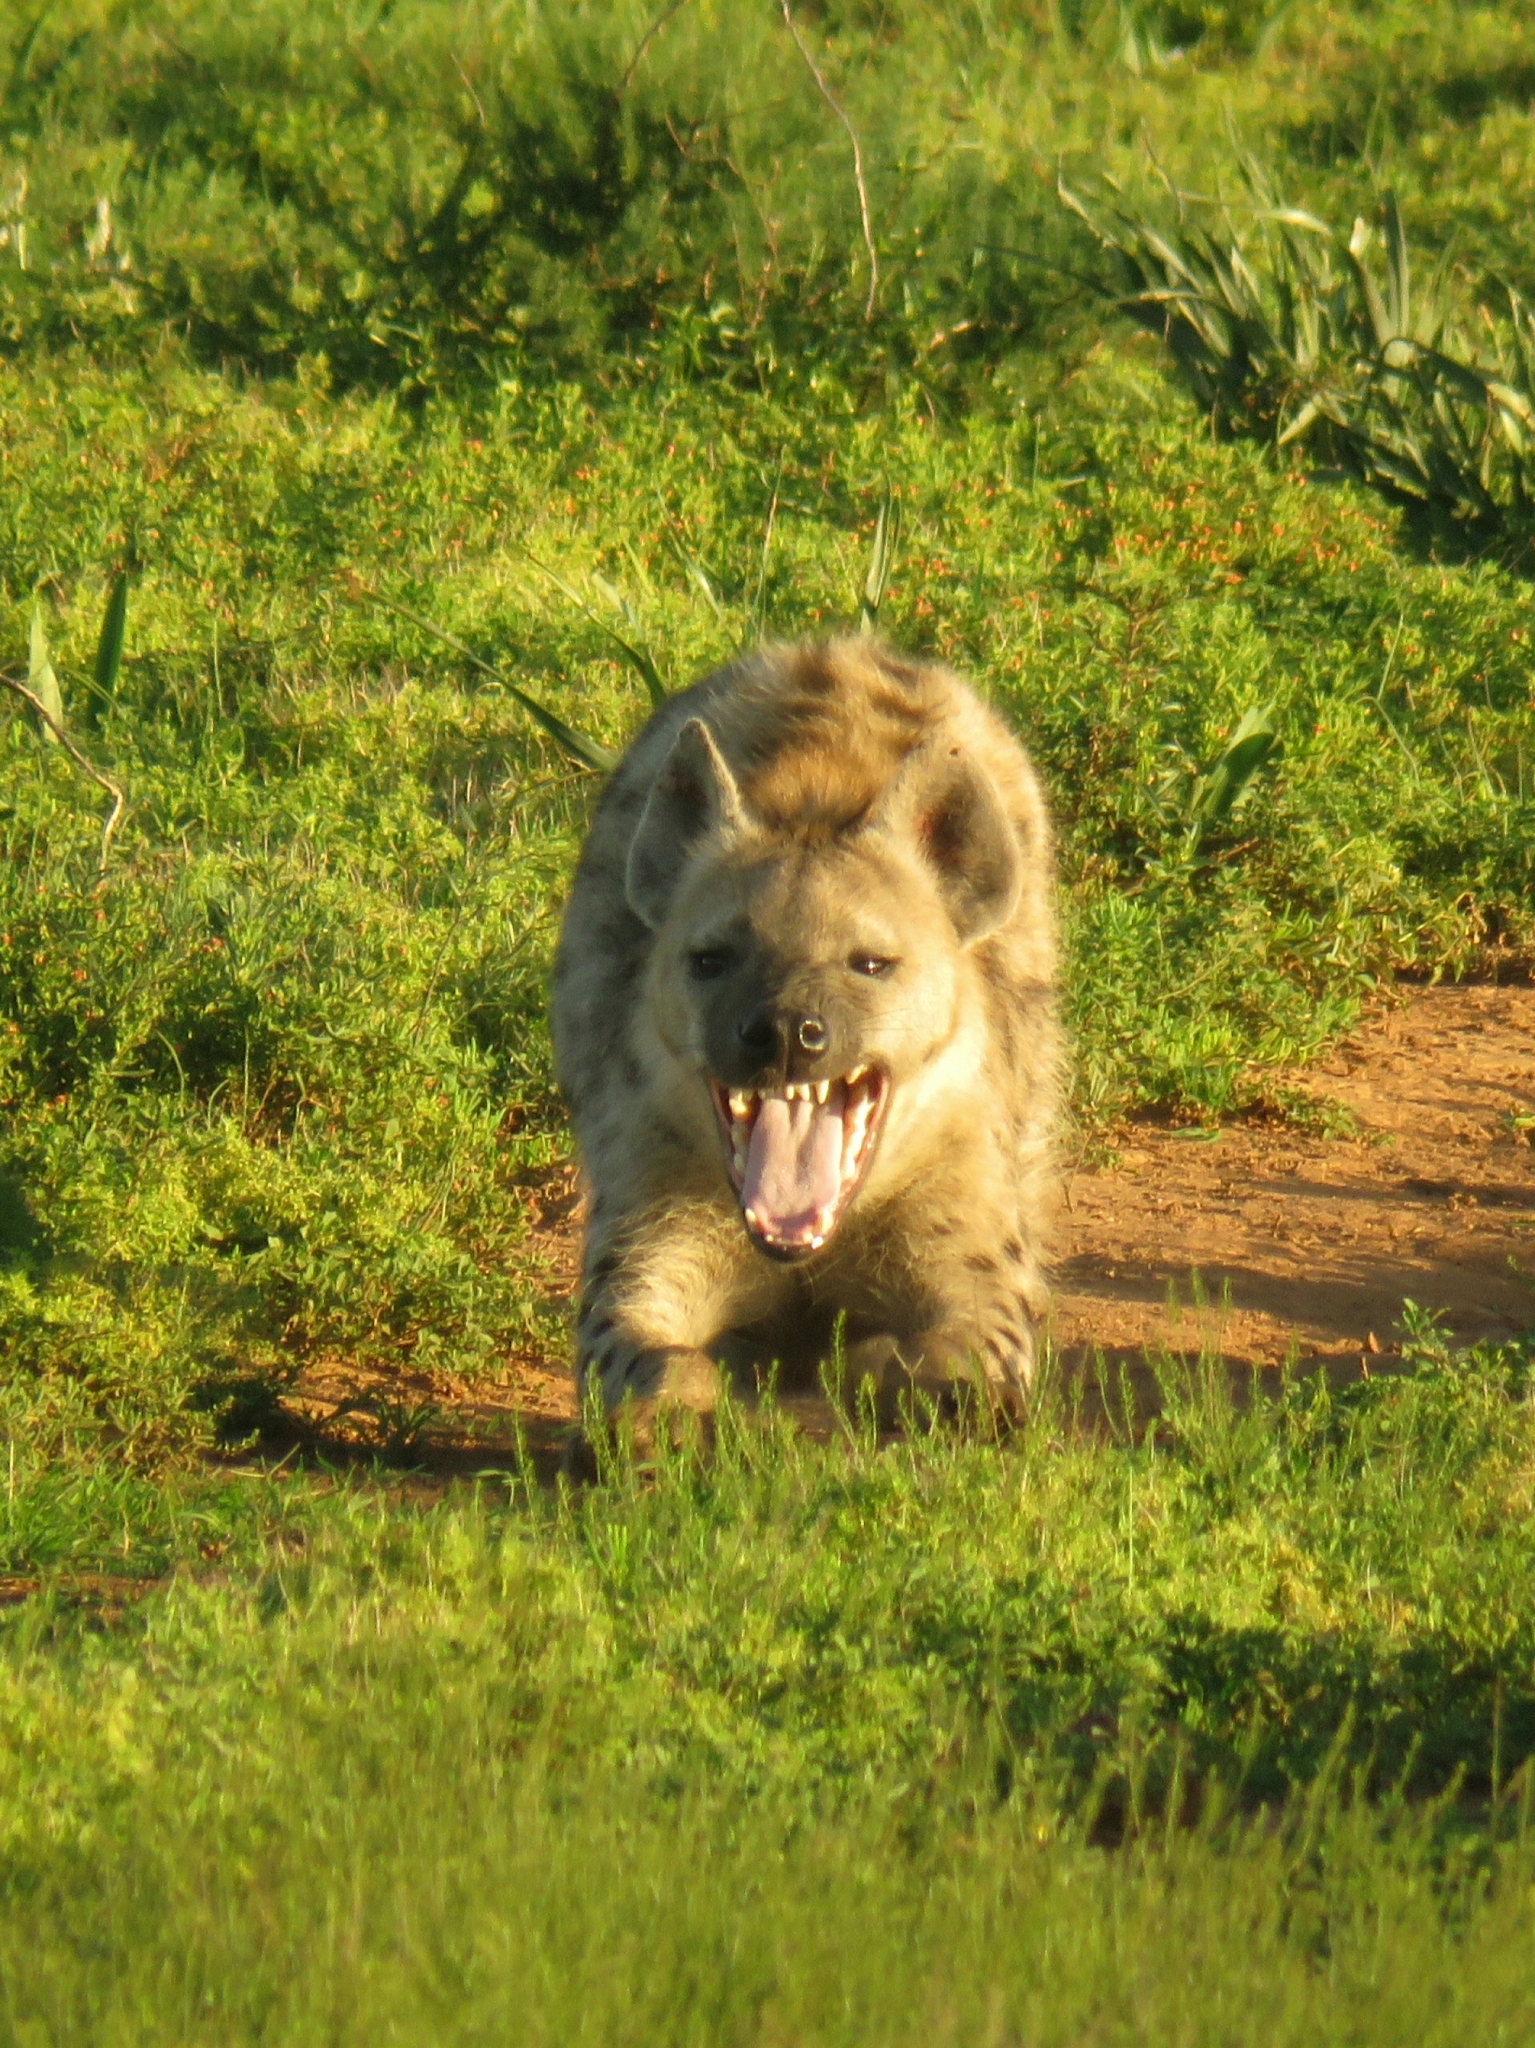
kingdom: Animalia
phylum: Chordata
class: Mammalia
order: Carnivora
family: Hyaenidae
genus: Crocuta
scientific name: Crocuta crocuta
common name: Spotted hyaena
